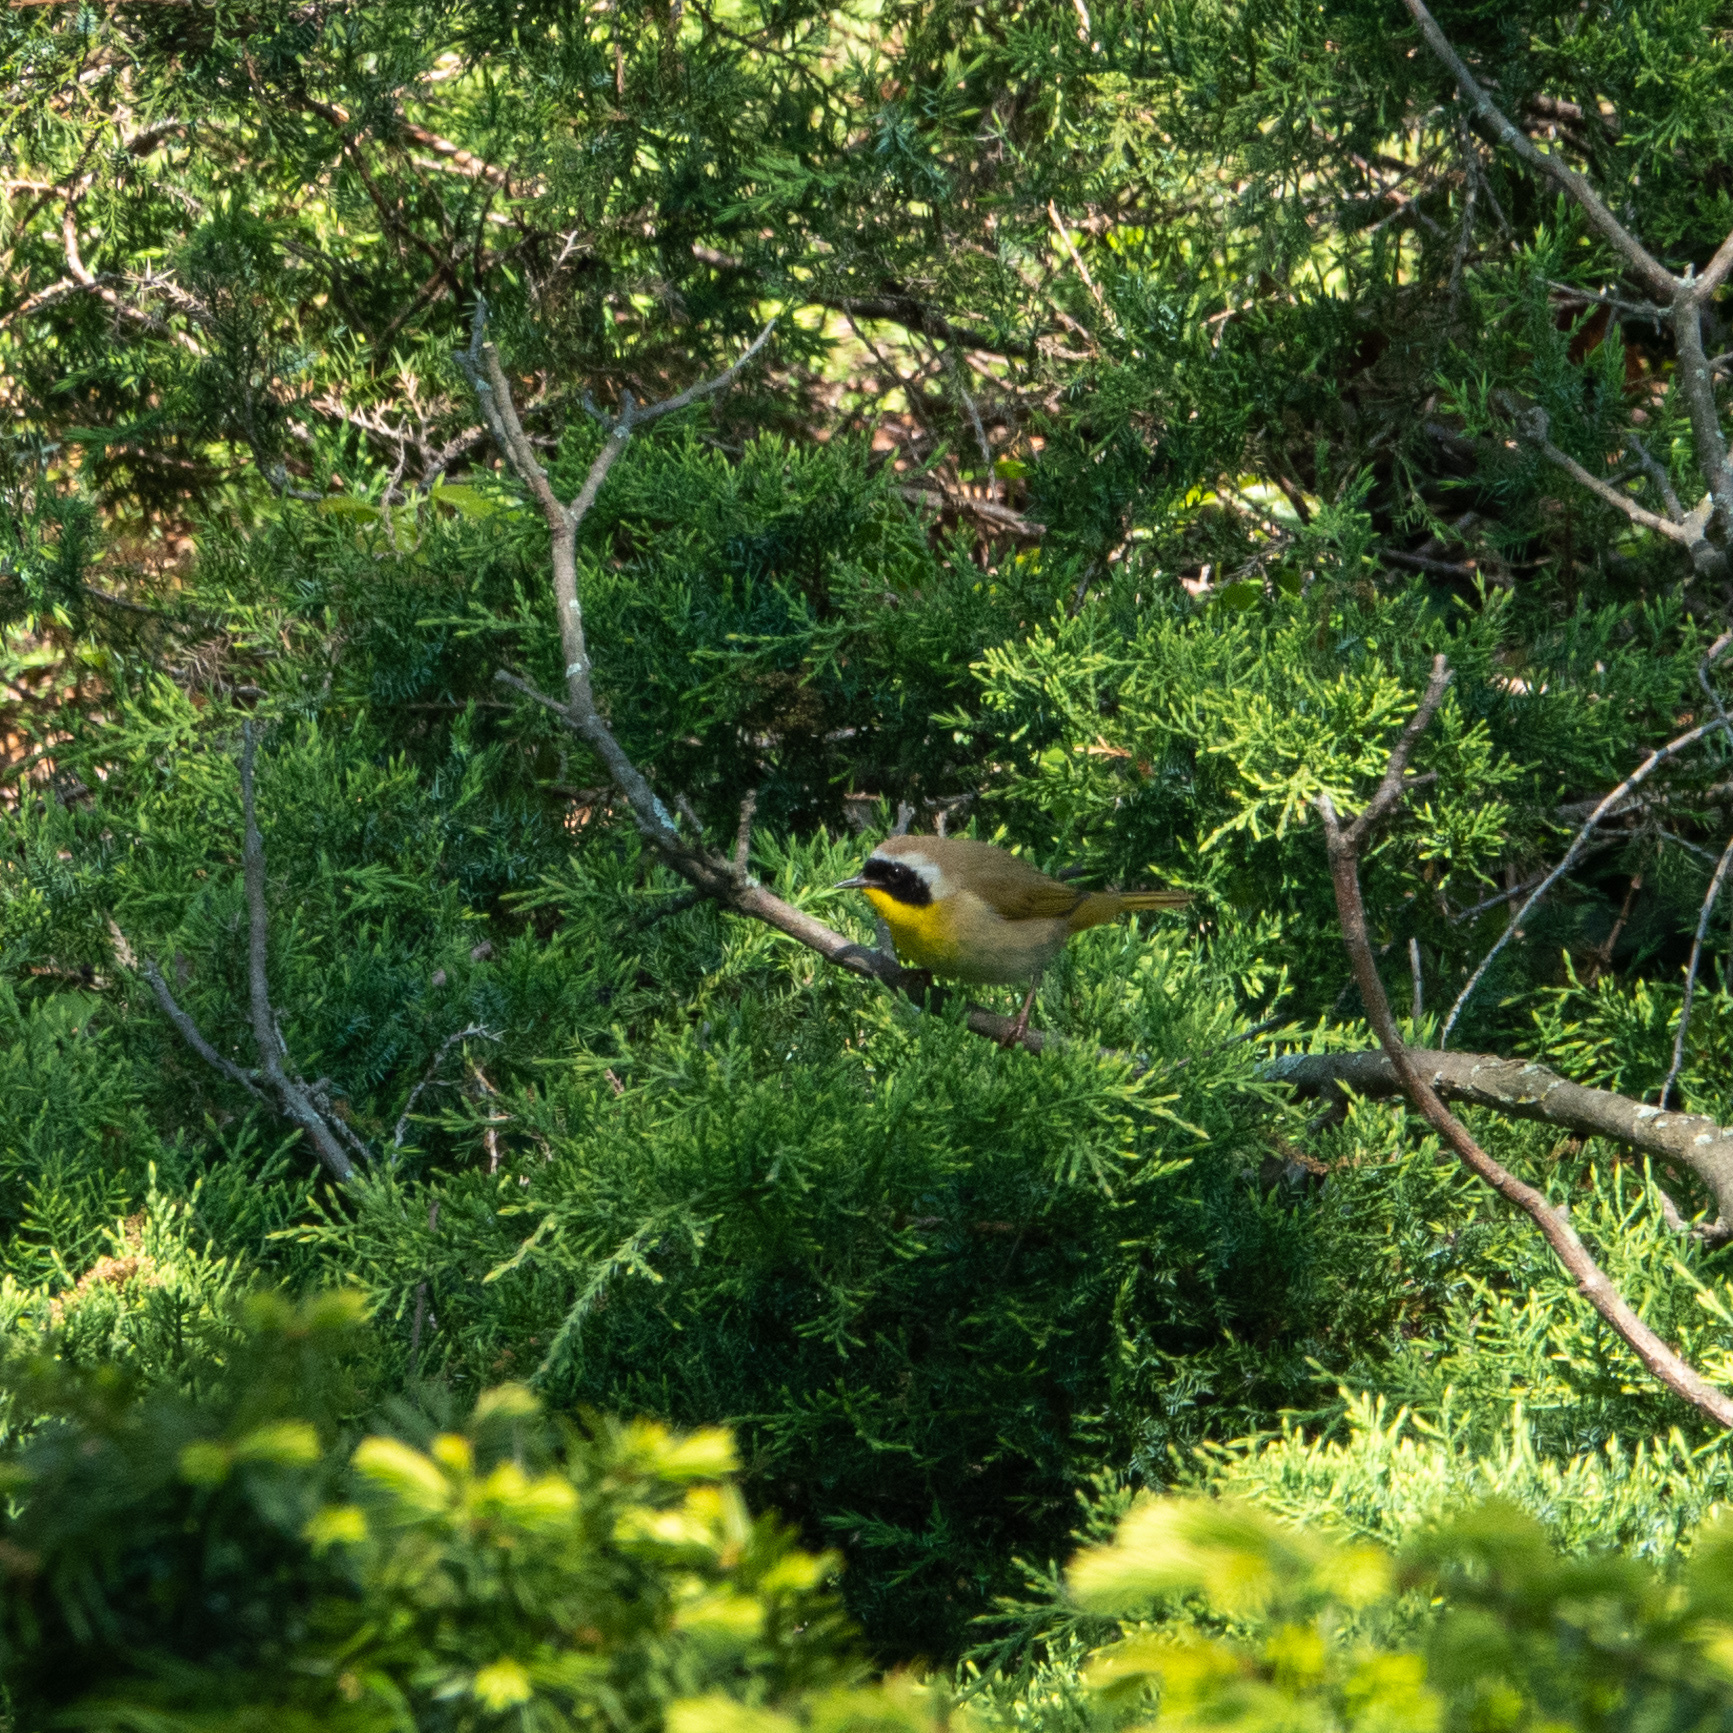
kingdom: Animalia
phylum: Chordata
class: Aves
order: Passeriformes
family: Parulidae
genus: Geothlypis
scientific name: Geothlypis trichas
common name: Common yellowthroat
